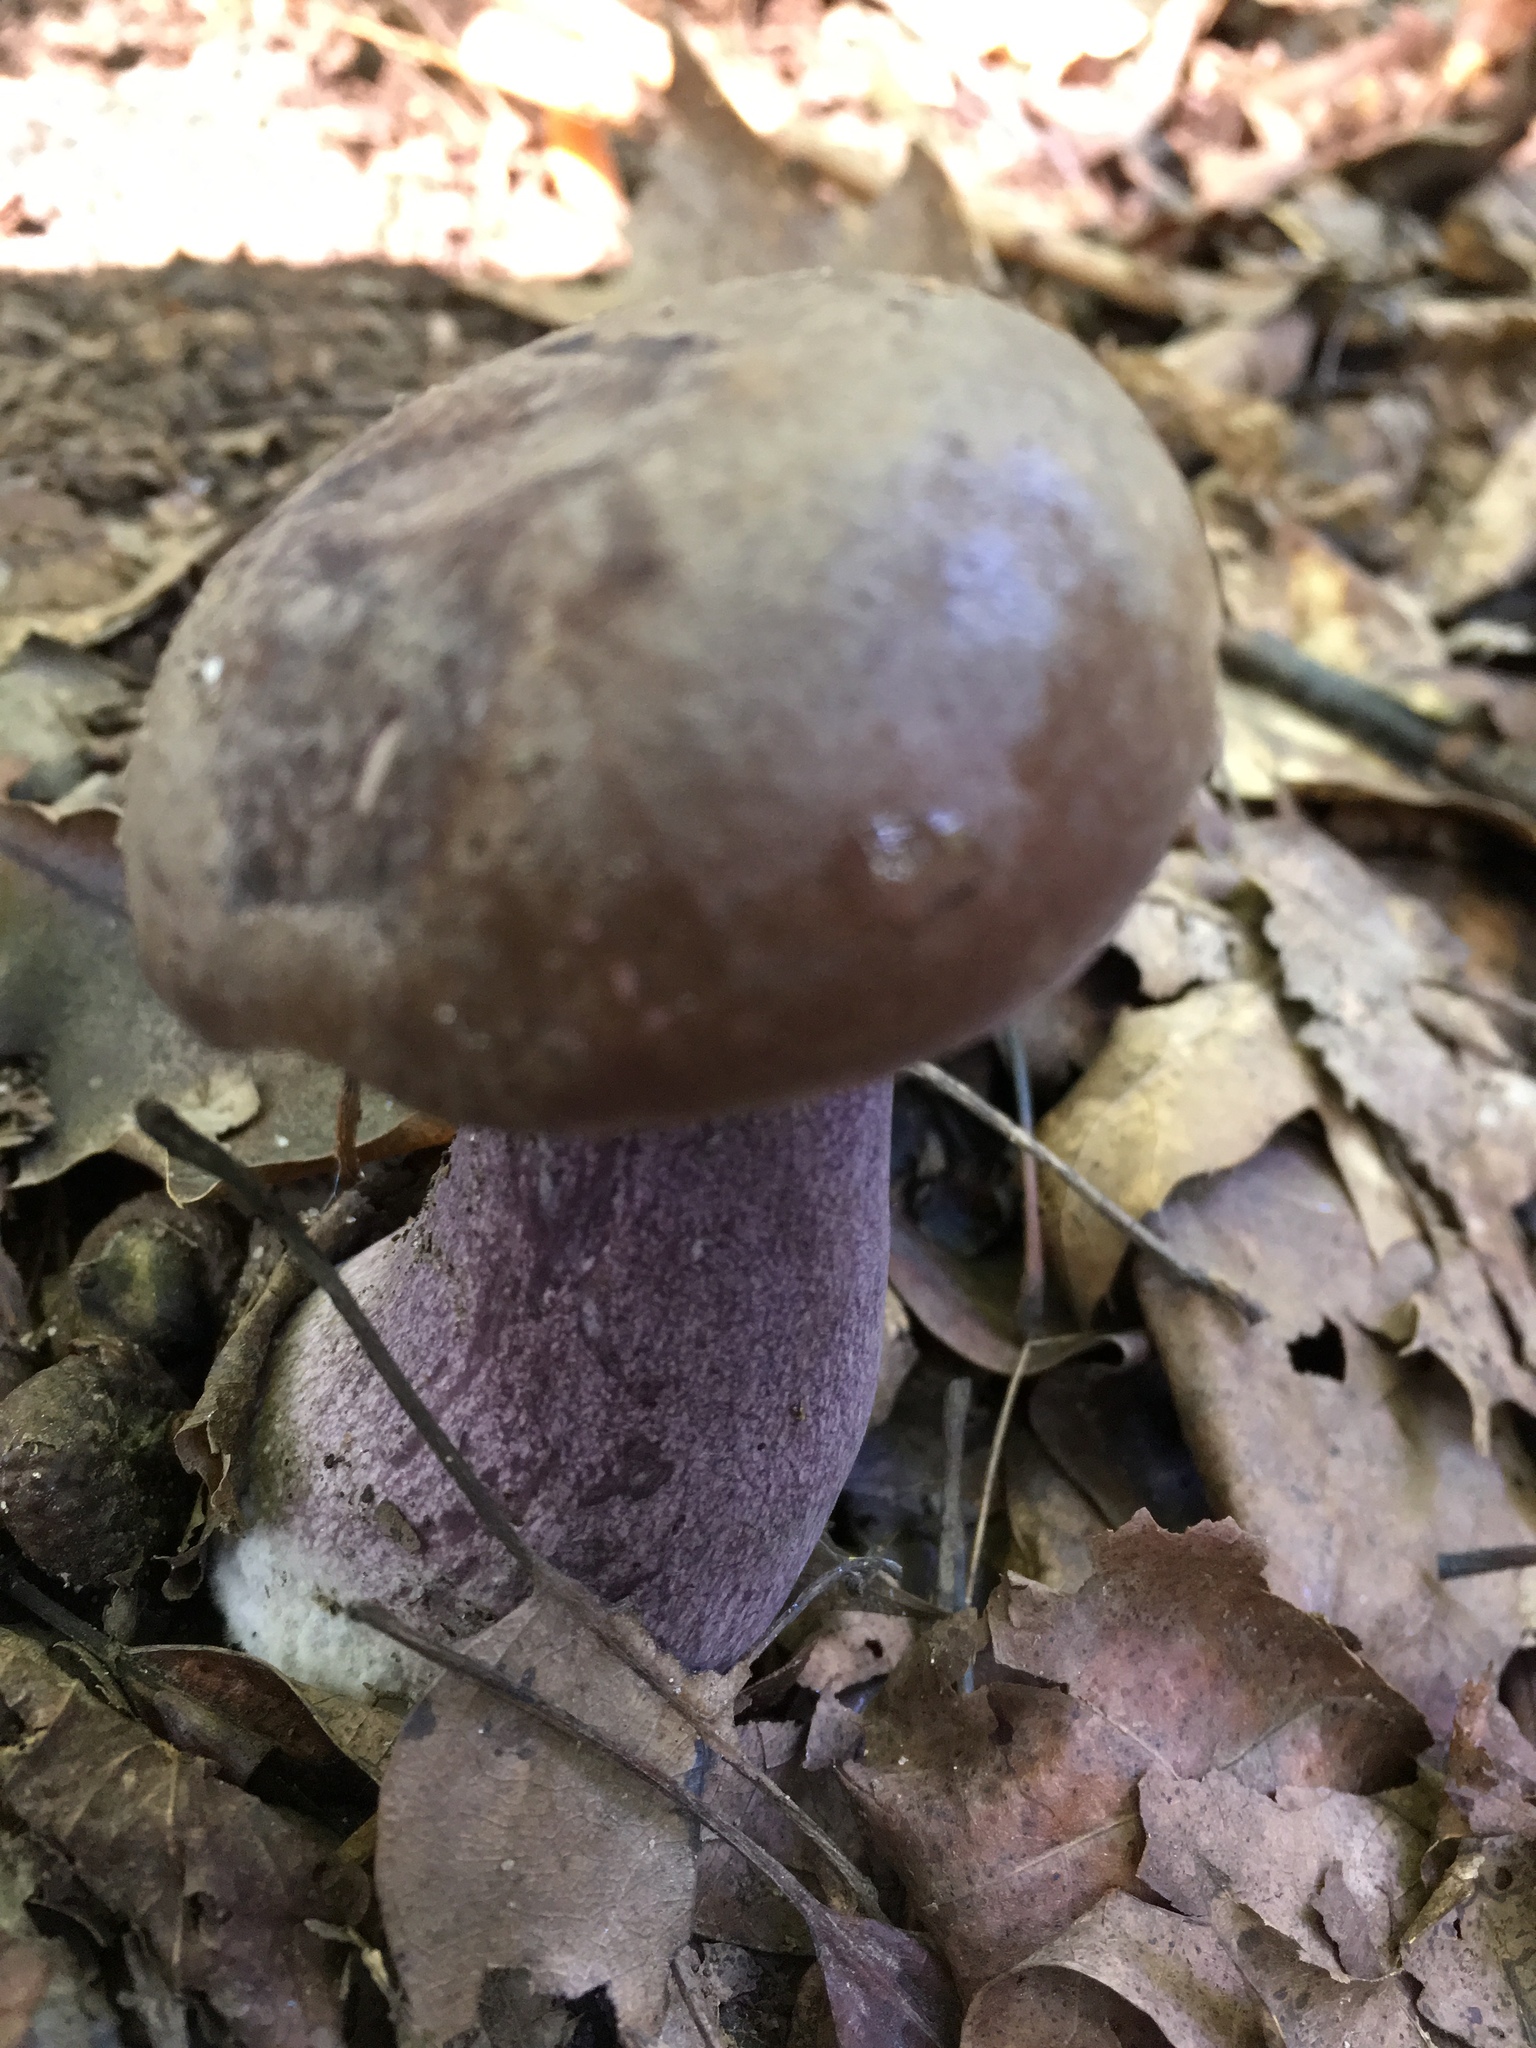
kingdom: Fungi
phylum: Basidiomycota
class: Agaricomycetes
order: Boletales
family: Boletaceae
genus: Tylopilus
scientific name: Tylopilus plumbeoviolaceus
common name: Violet gray bolete
